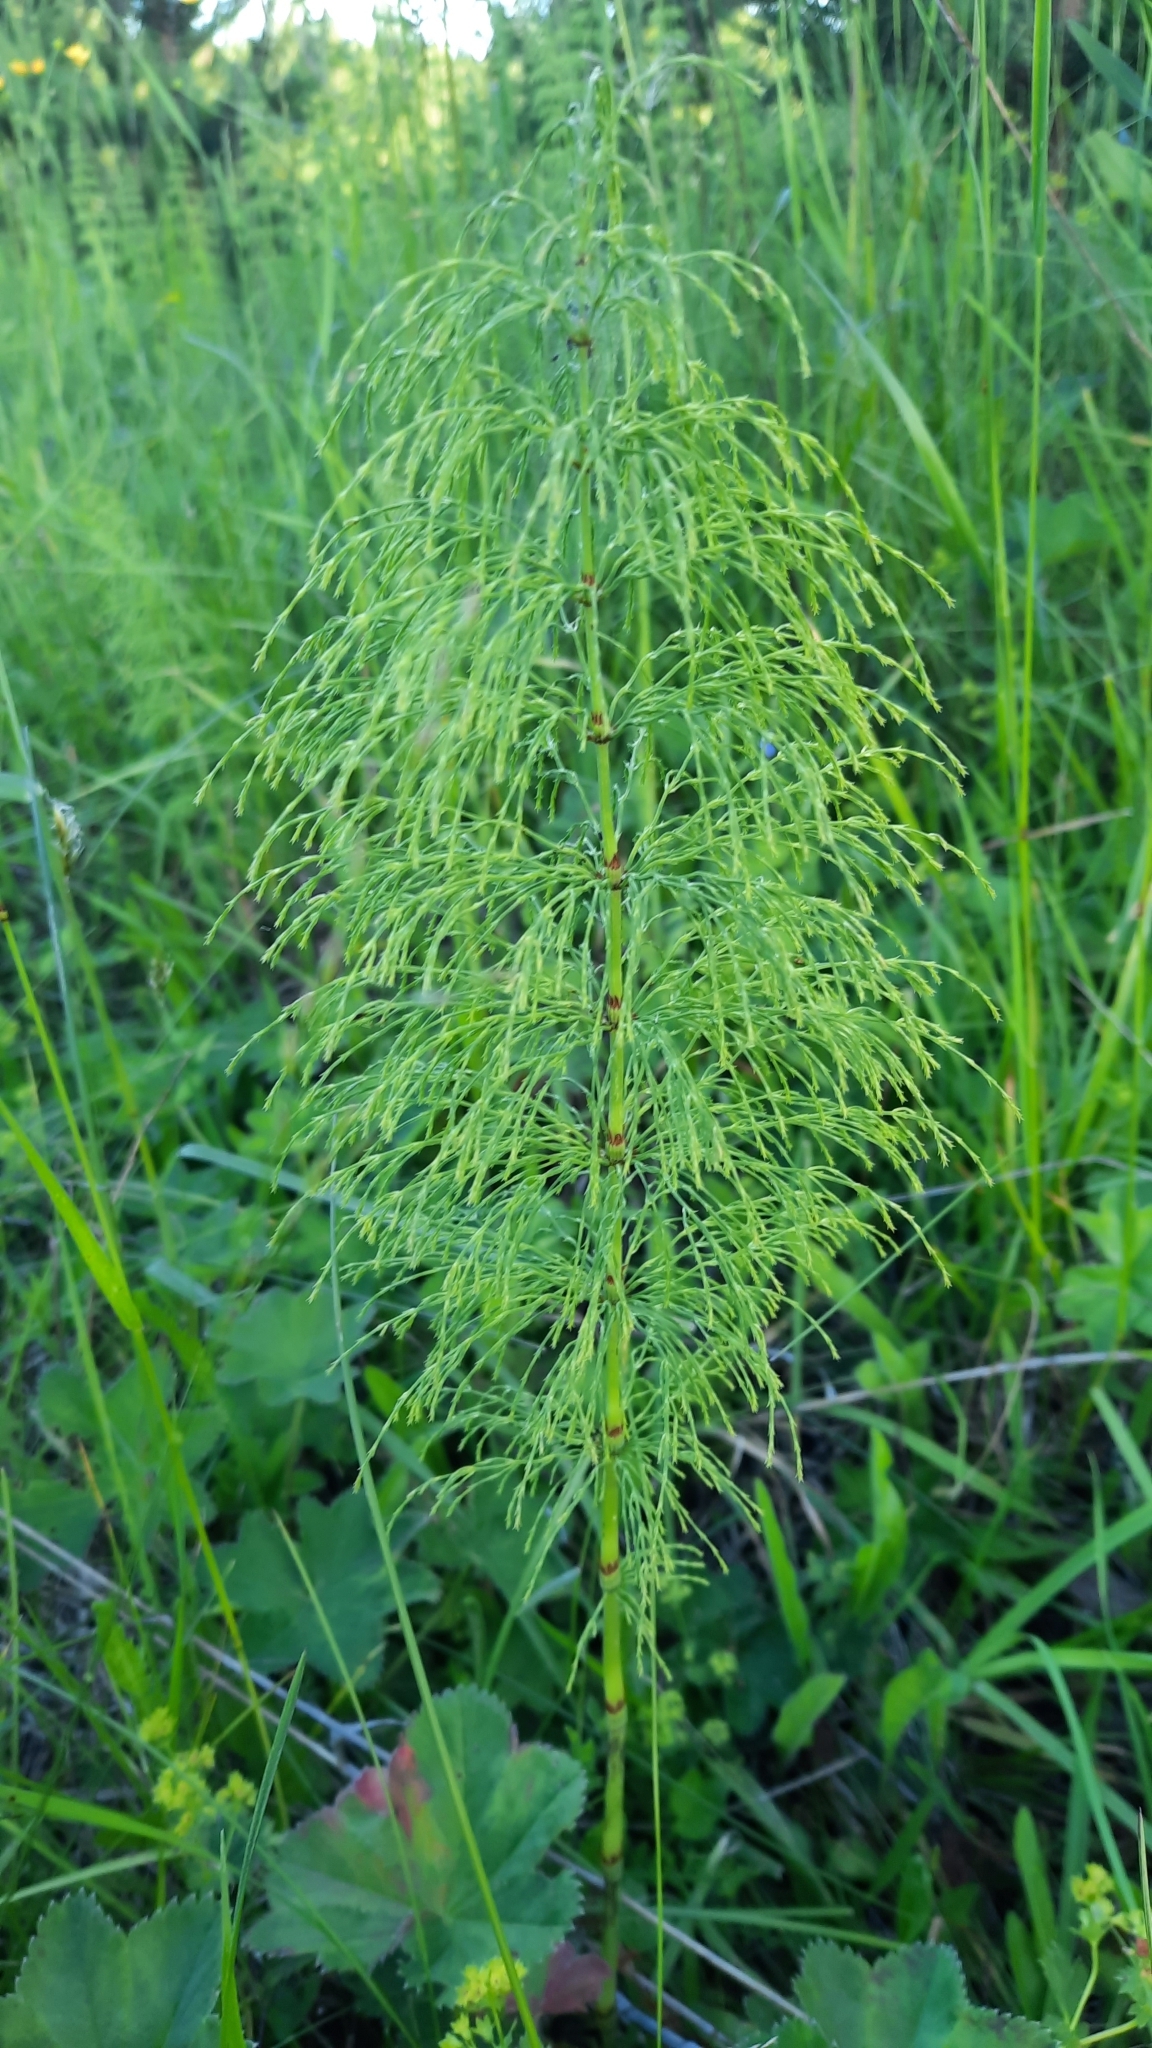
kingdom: Plantae
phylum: Tracheophyta
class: Polypodiopsida
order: Equisetales
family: Equisetaceae
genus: Equisetum
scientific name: Equisetum sylvaticum
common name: Wood horsetail
